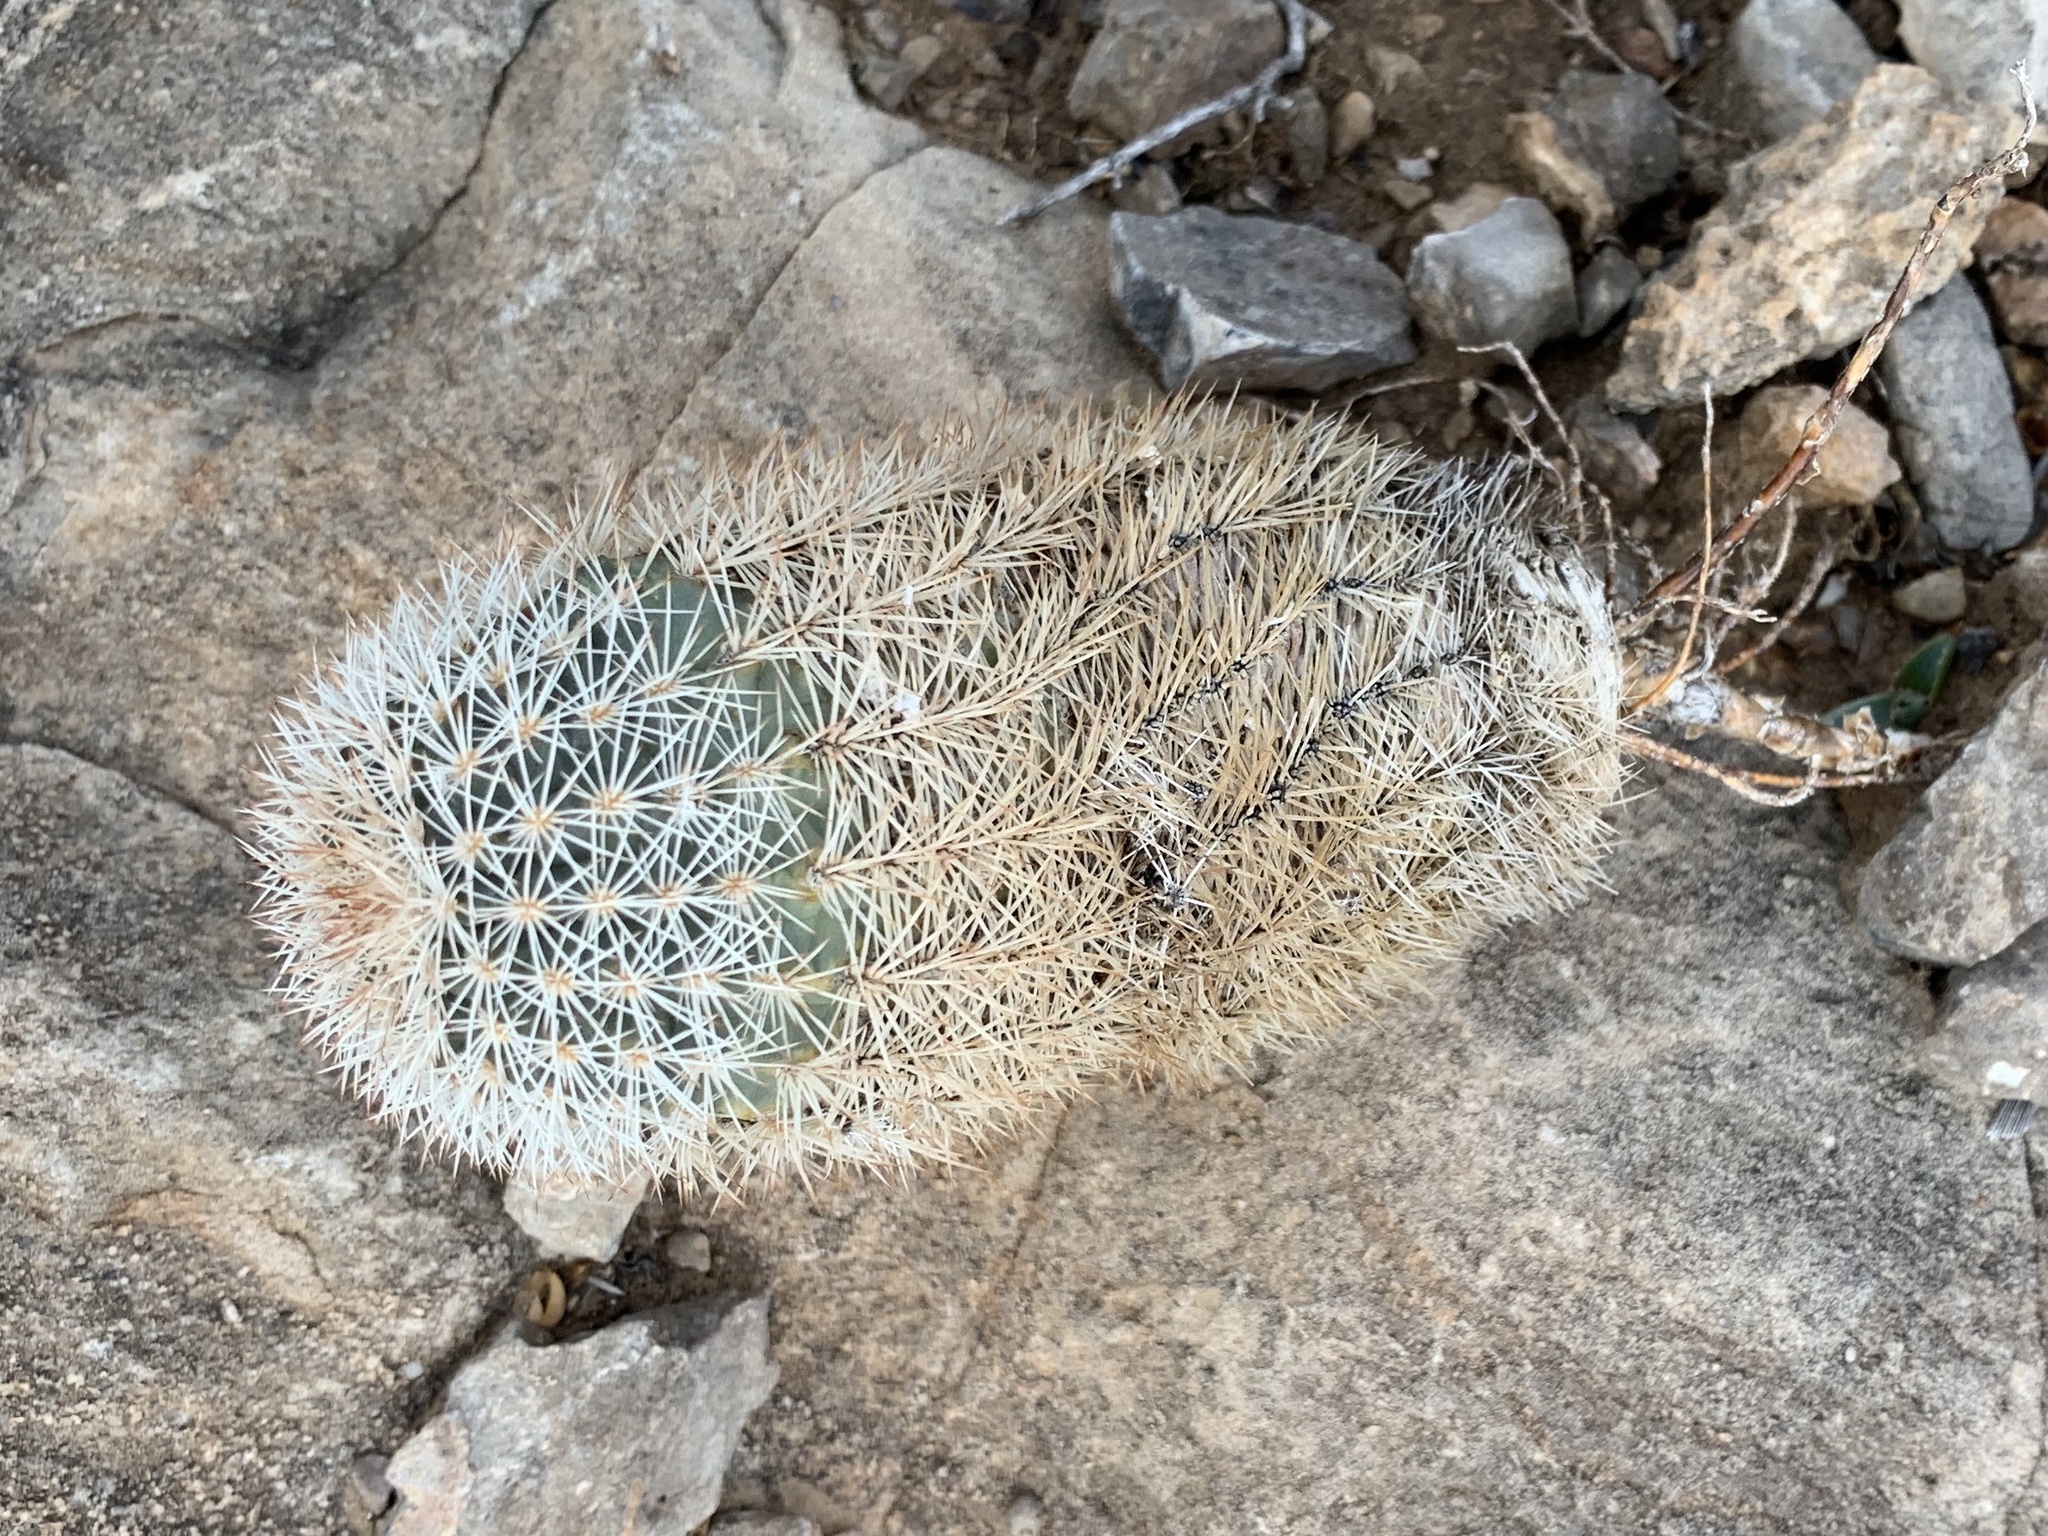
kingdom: Plantae
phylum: Tracheophyta
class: Magnoliopsida
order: Caryophyllales
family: Cactaceae
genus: Echinocereus
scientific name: Echinocereus dasyacanthus
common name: Spiny hedgehog cactus
